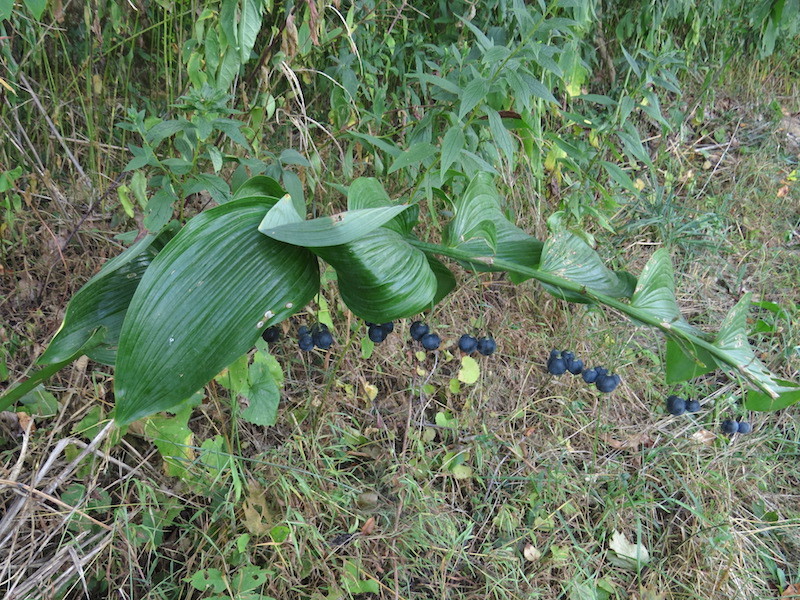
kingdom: Plantae
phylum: Tracheophyta
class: Liliopsida
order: Asparagales
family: Asparagaceae
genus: Polygonatum
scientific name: Polygonatum biflorum
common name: American solomon's-seal
